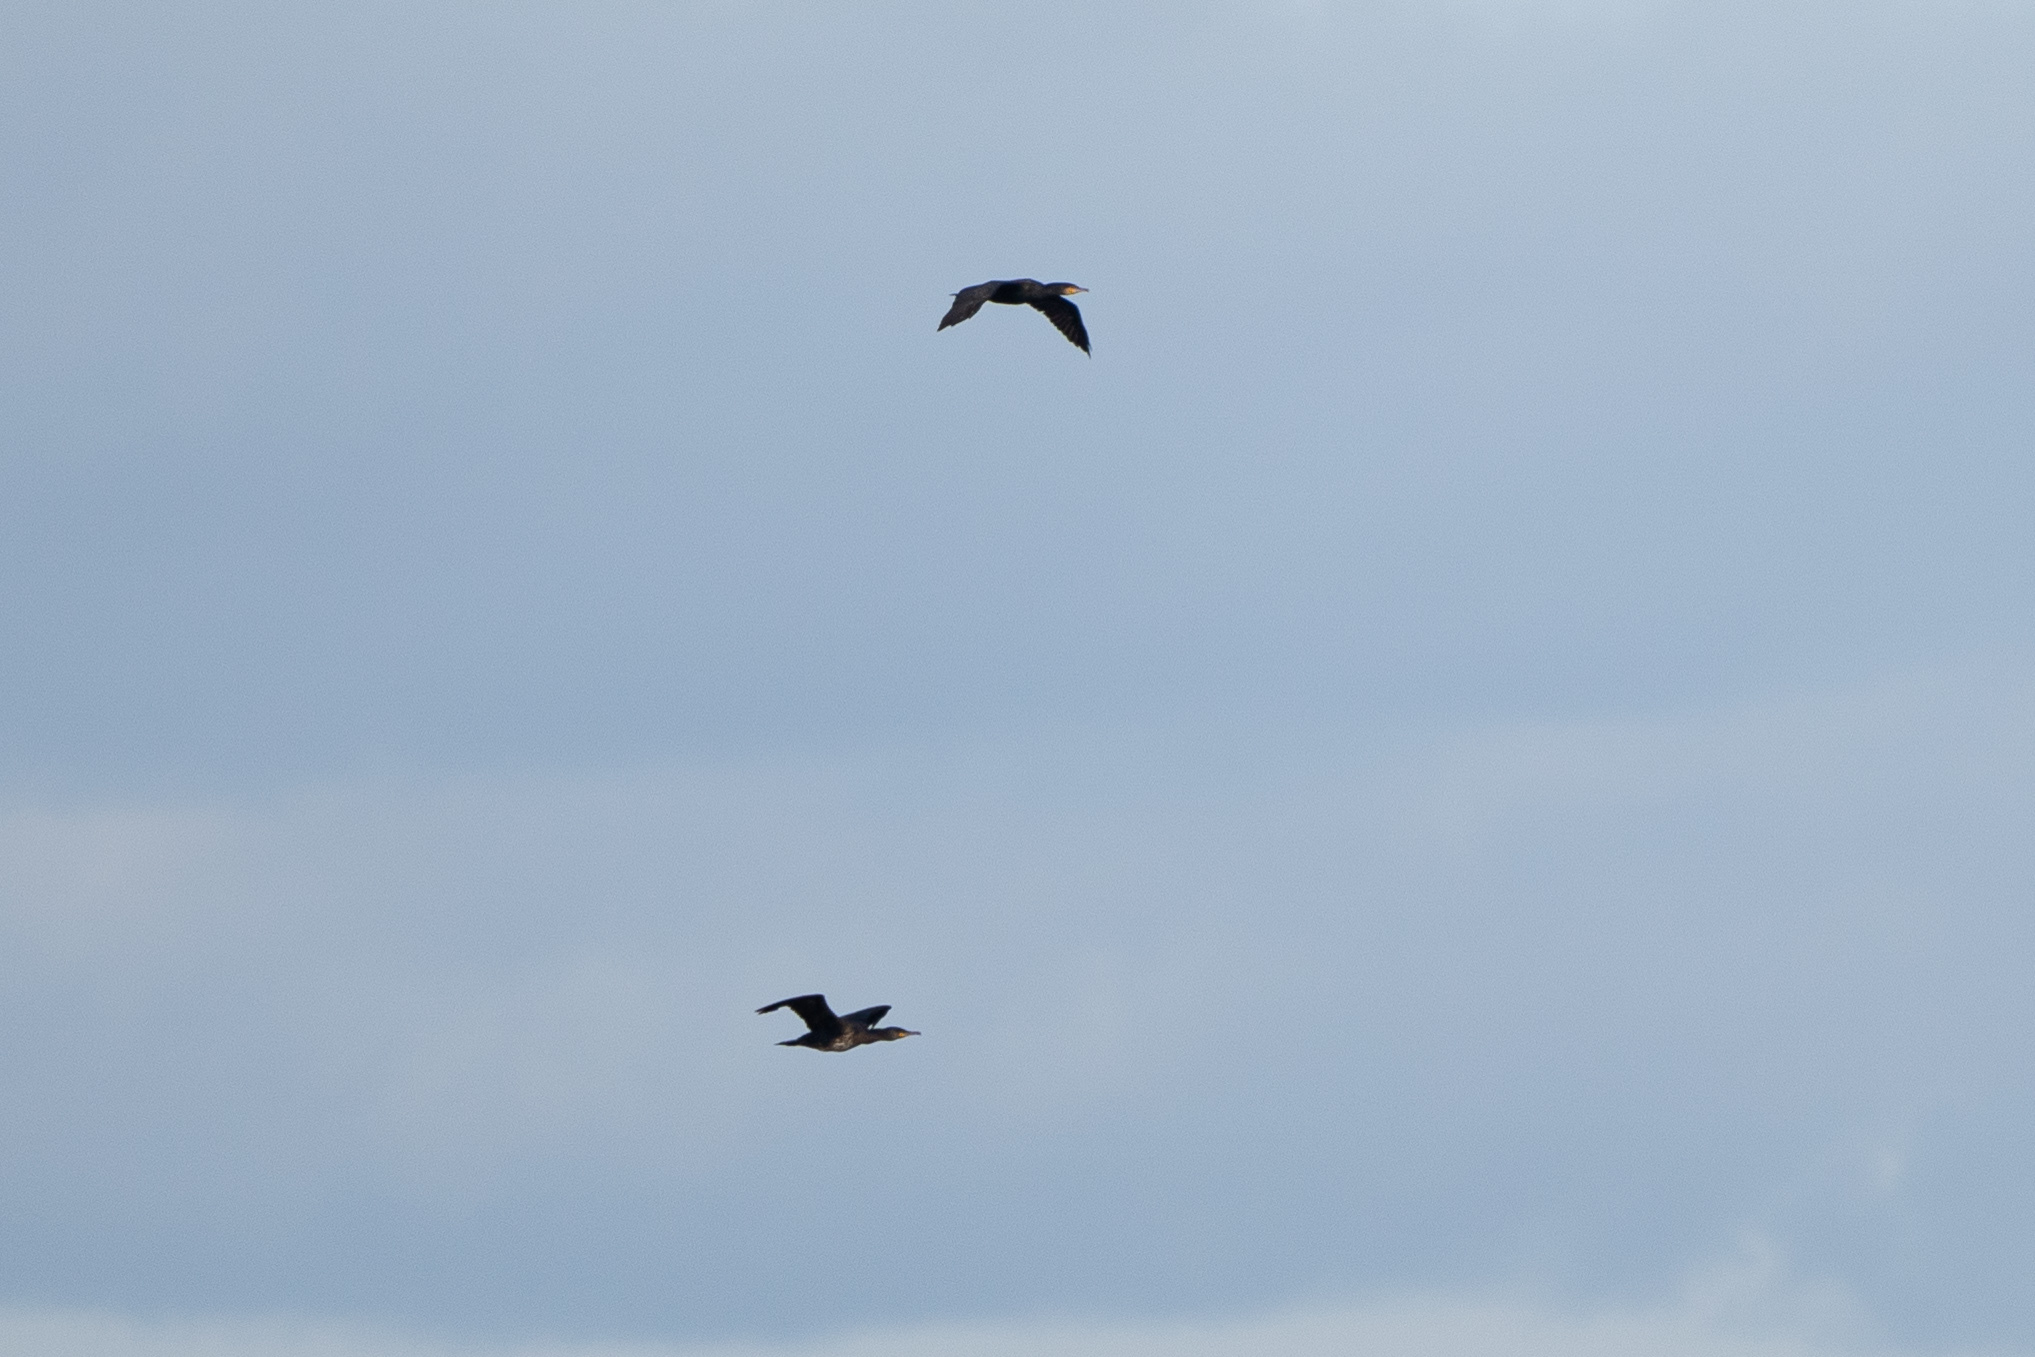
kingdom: Animalia
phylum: Chordata
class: Aves
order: Suliformes
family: Phalacrocoracidae
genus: Phalacrocorax
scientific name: Phalacrocorax carbo
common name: Great cormorant
